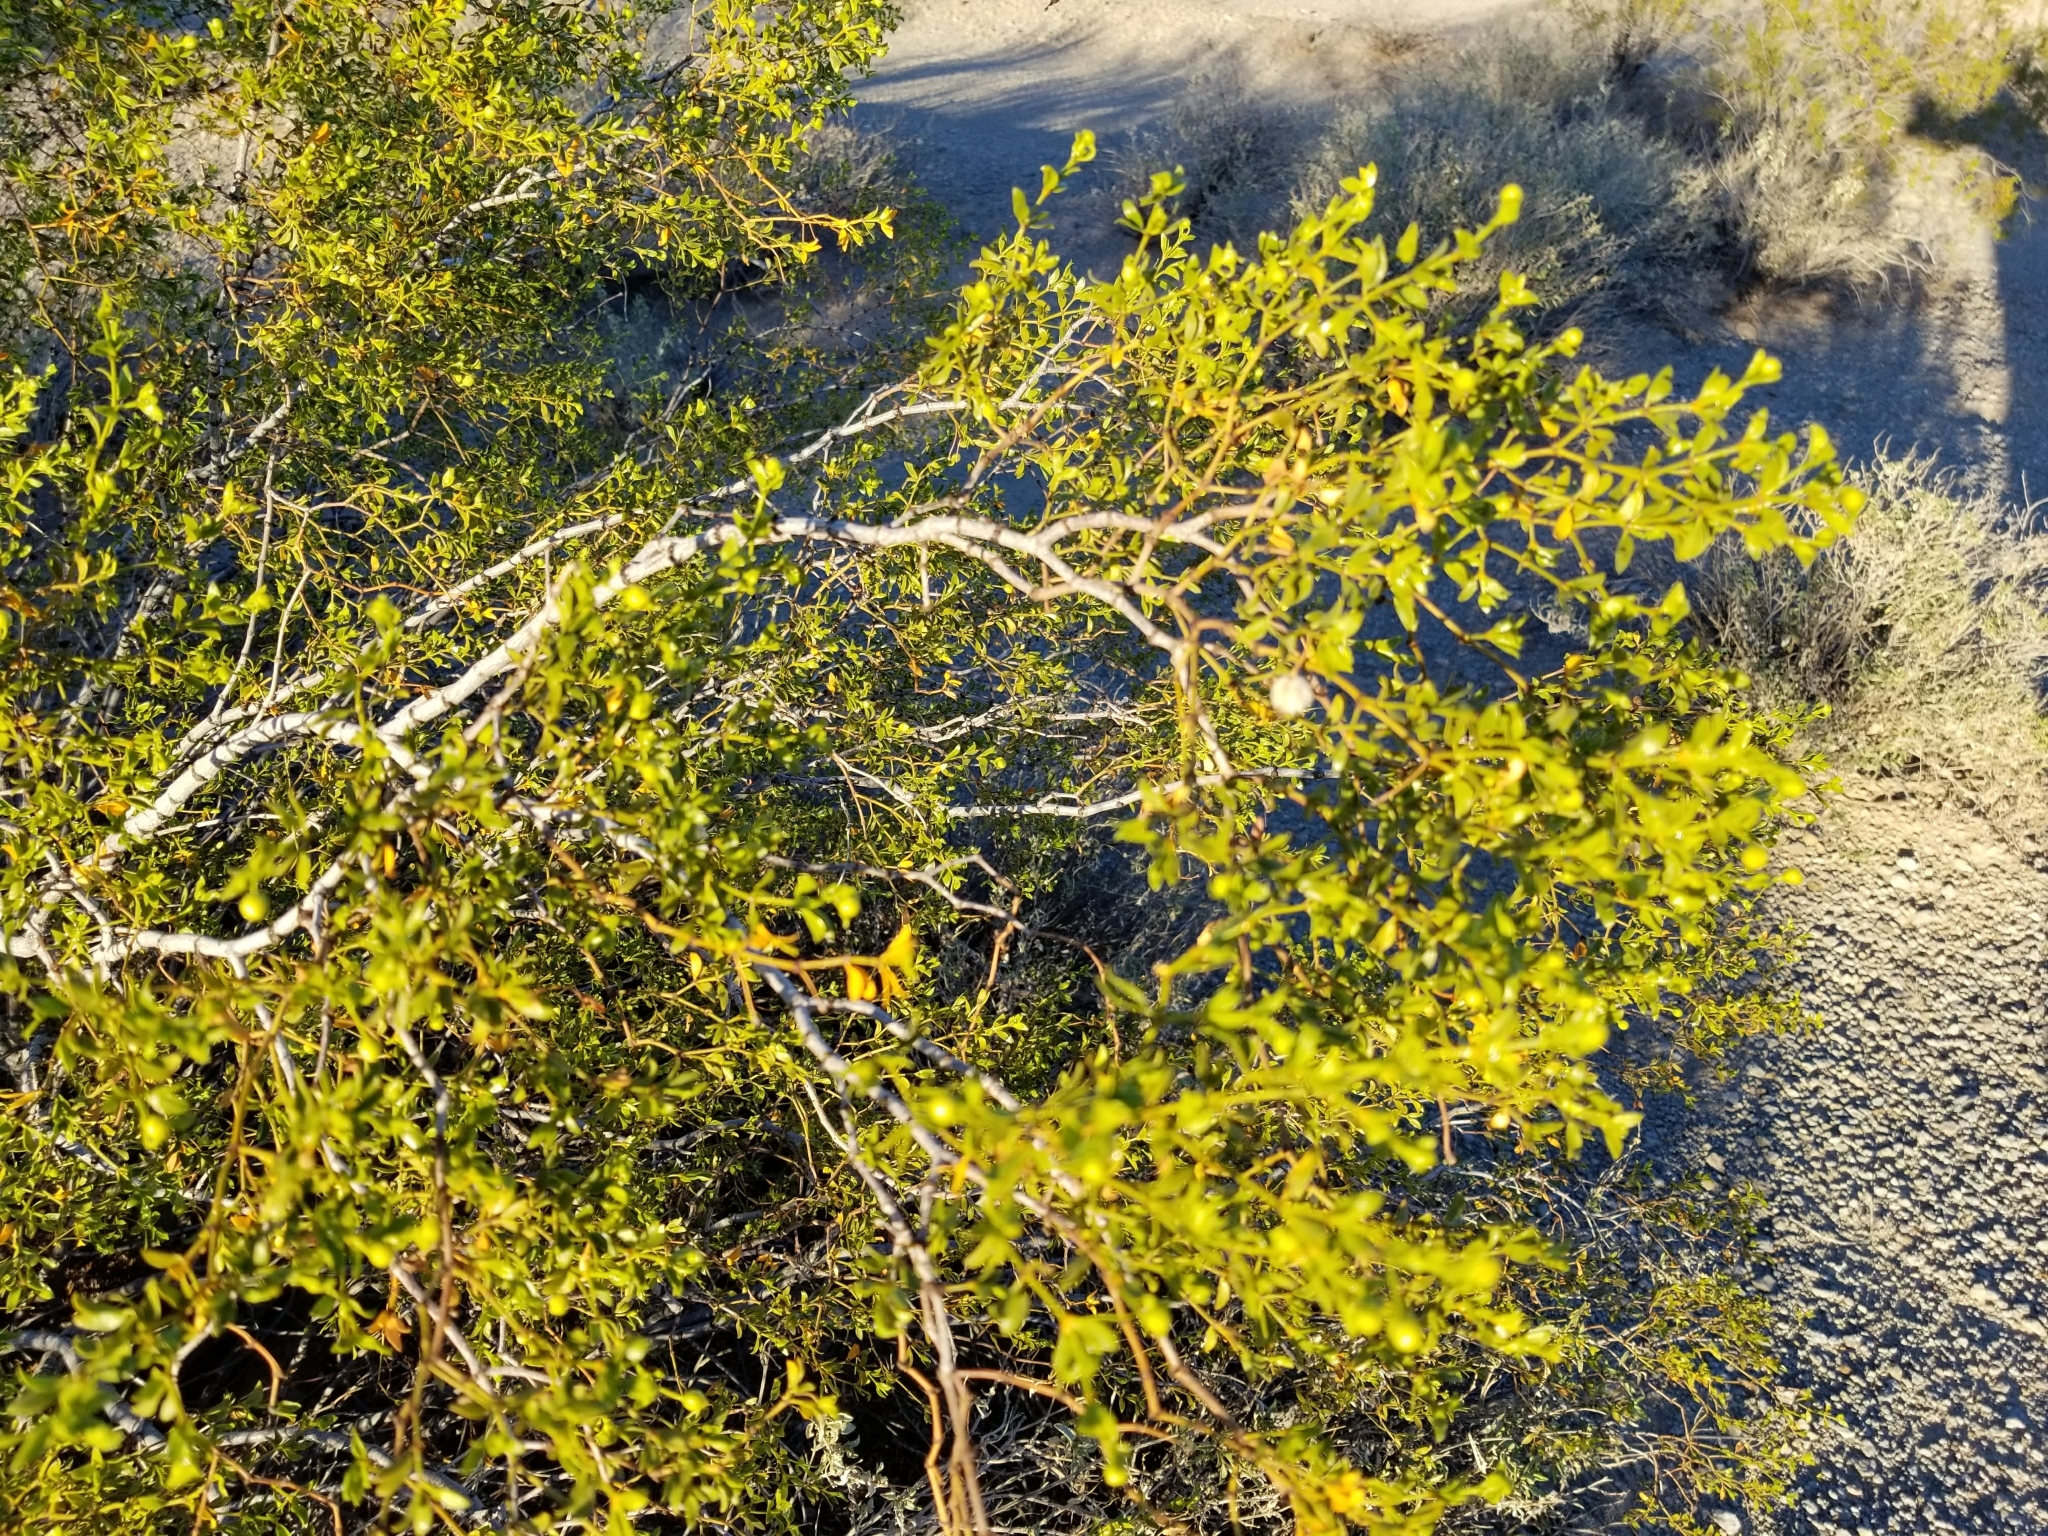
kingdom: Plantae
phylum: Tracheophyta
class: Magnoliopsida
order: Zygophyllales
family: Zygophyllaceae
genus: Larrea
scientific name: Larrea tridentata
